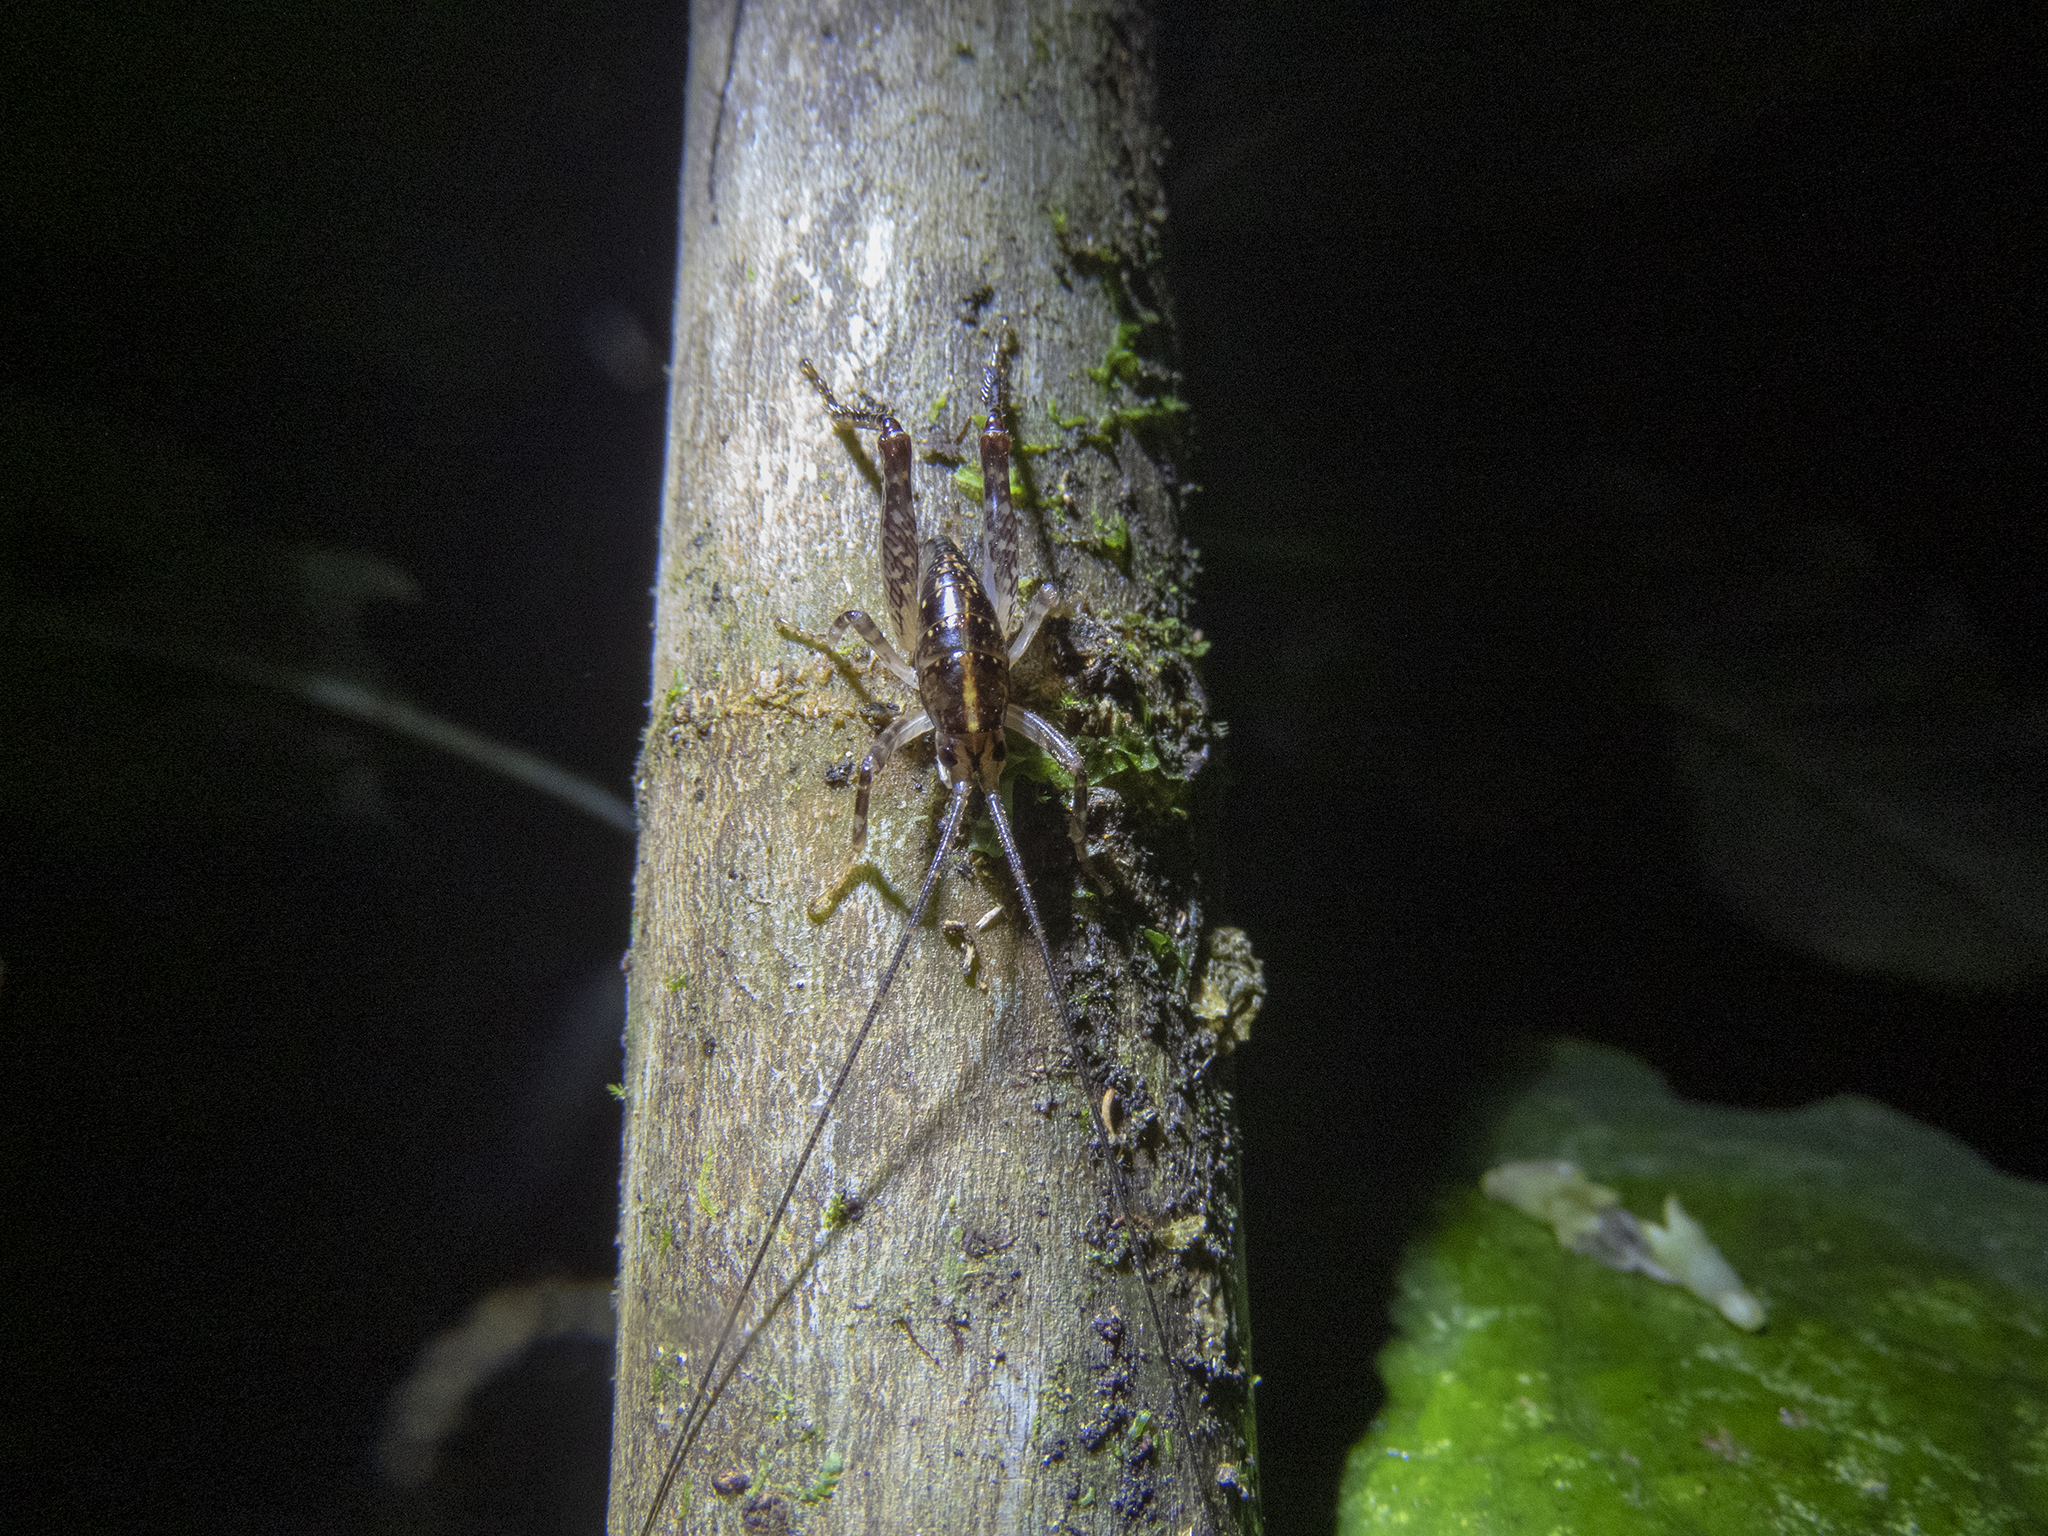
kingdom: Animalia
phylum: Arthropoda
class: Insecta
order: Orthoptera
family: Rhaphidophoridae
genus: Talitropsis
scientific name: Talitropsis sedilloti
